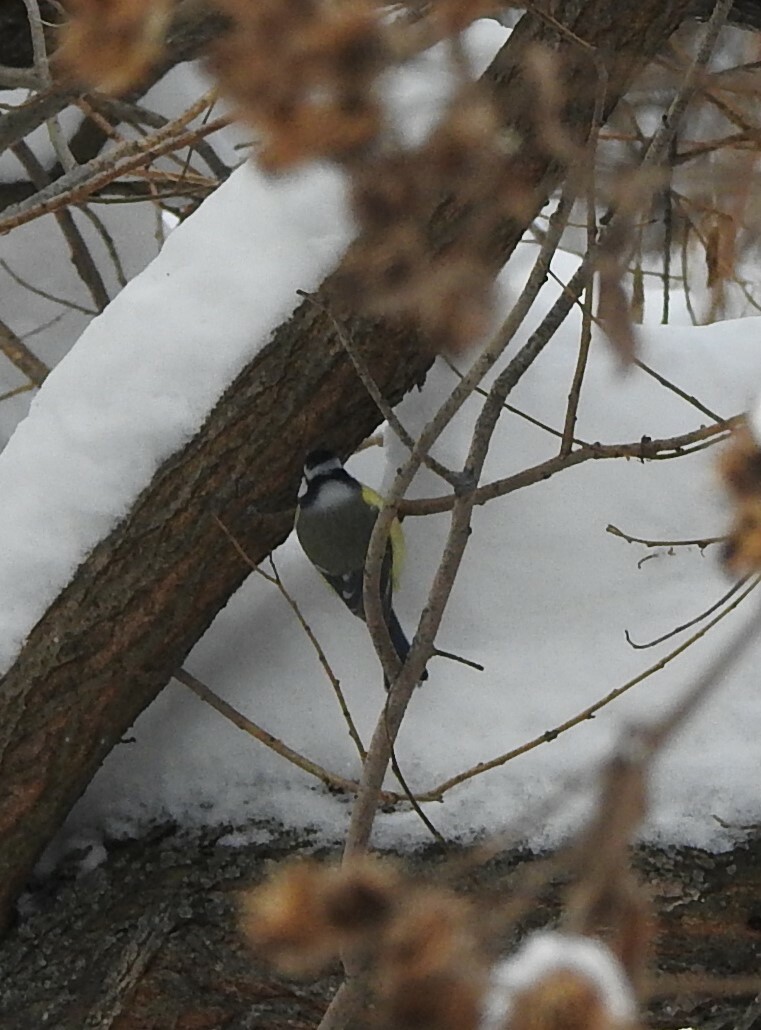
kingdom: Animalia
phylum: Chordata
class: Aves
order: Passeriformes
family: Paridae
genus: Cyanistes
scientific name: Cyanistes caeruleus
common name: Eurasian blue tit
